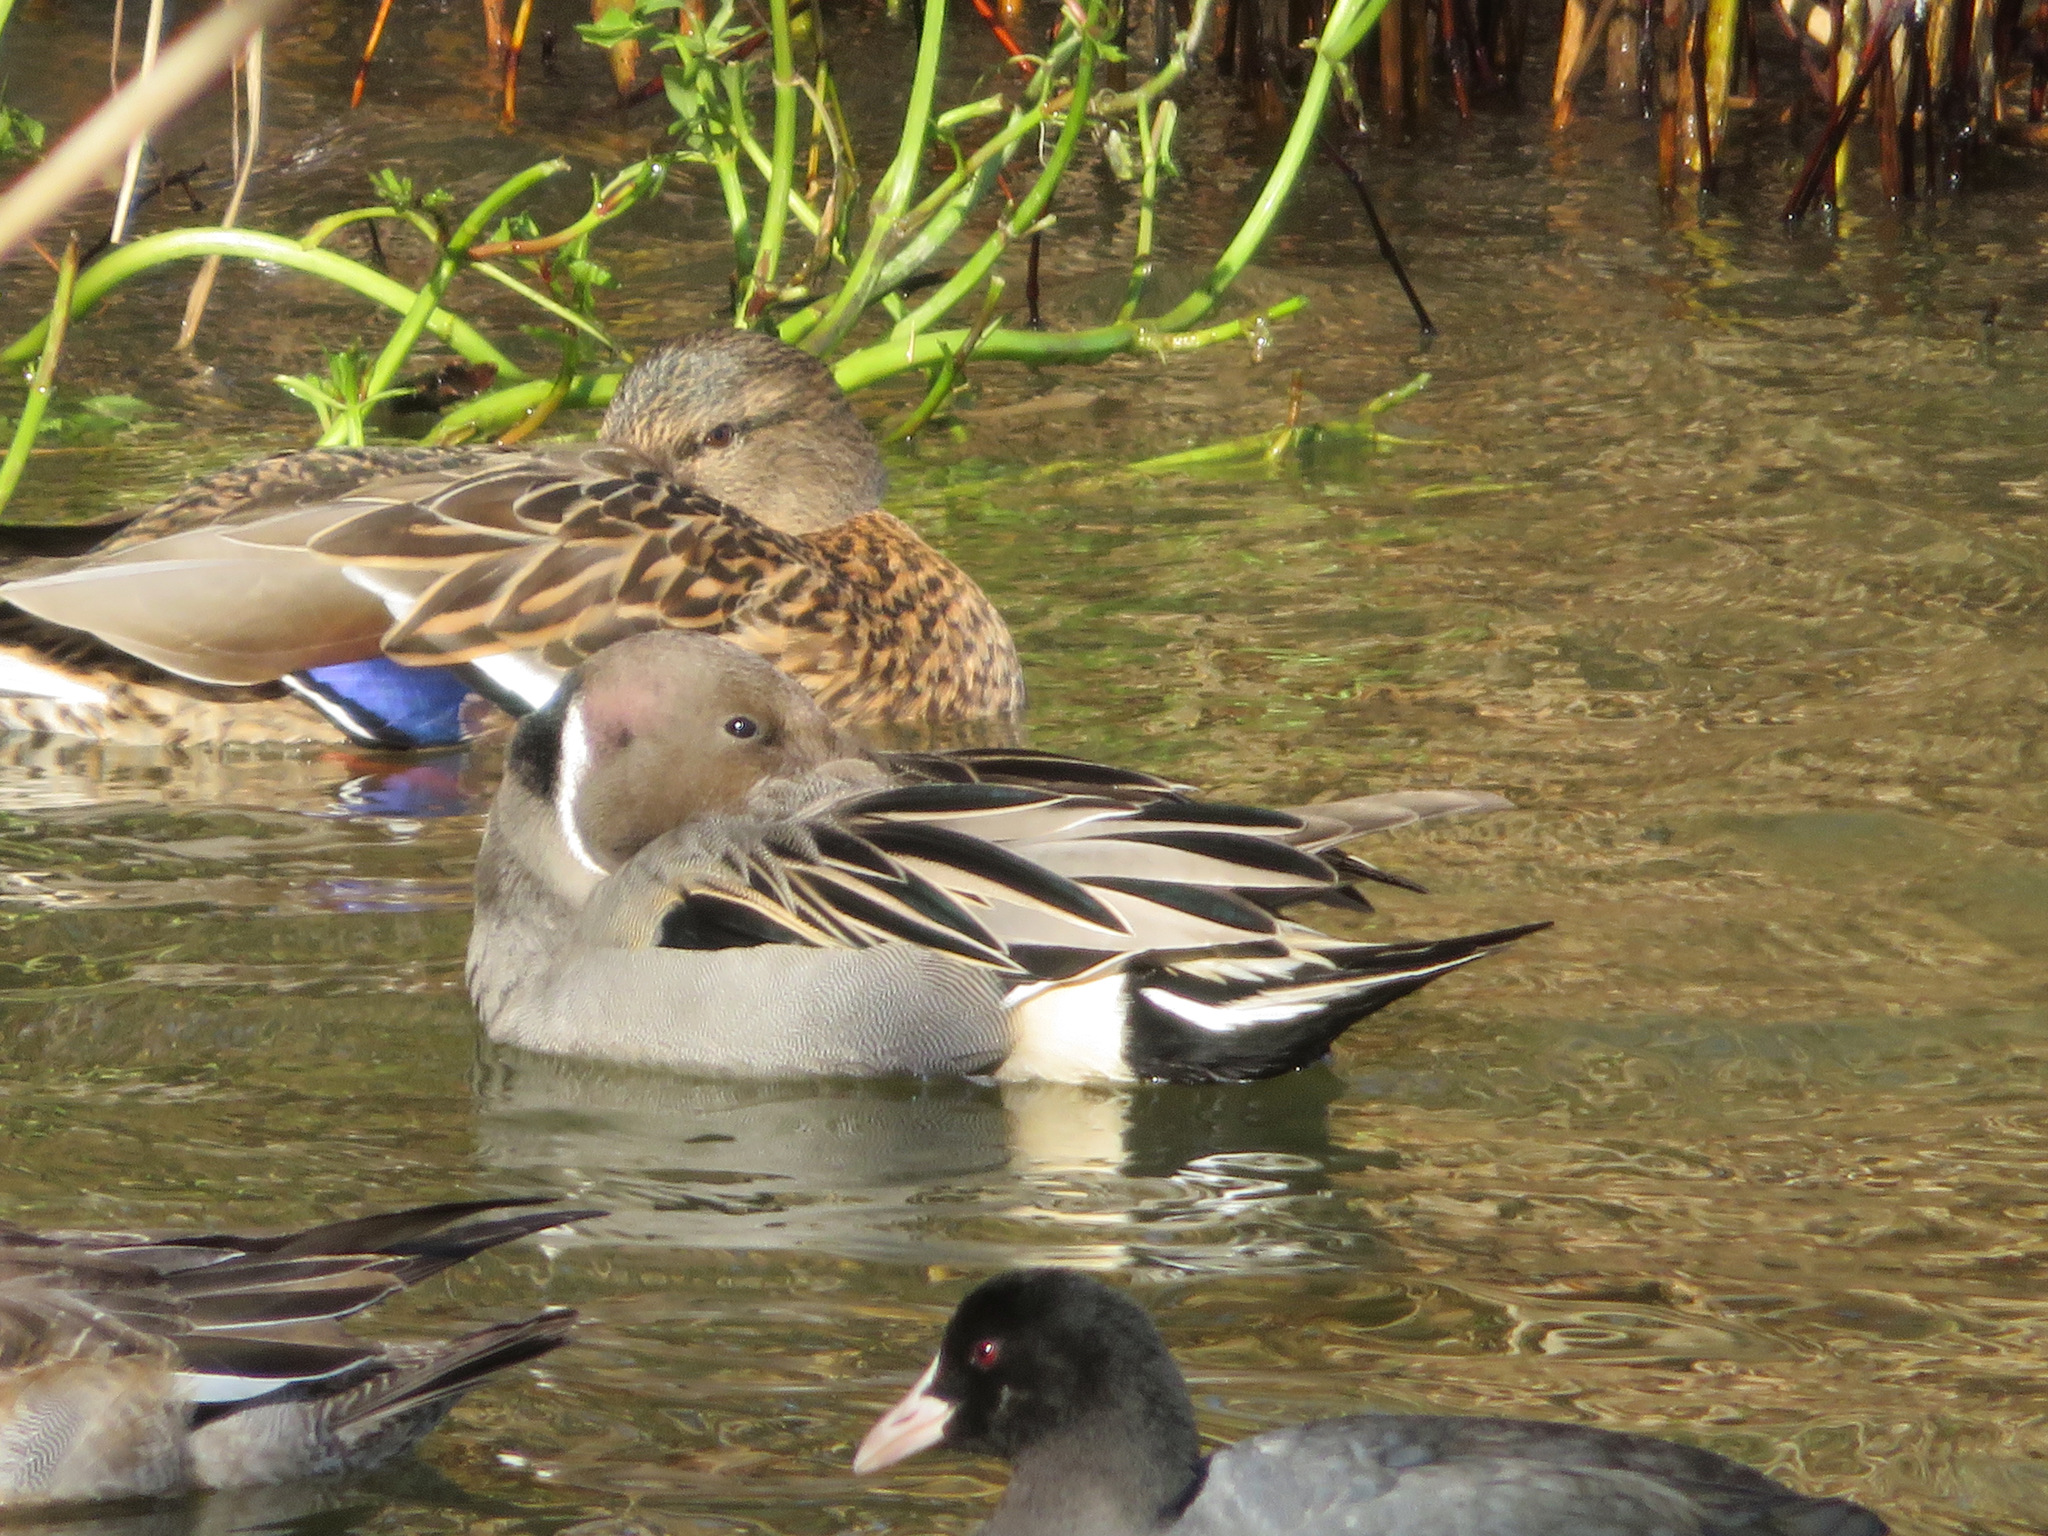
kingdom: Animalia
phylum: Chordata
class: Aves
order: Anseriformes
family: Anatidae
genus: Anas
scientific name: Anas acuta
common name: Northern pintail
